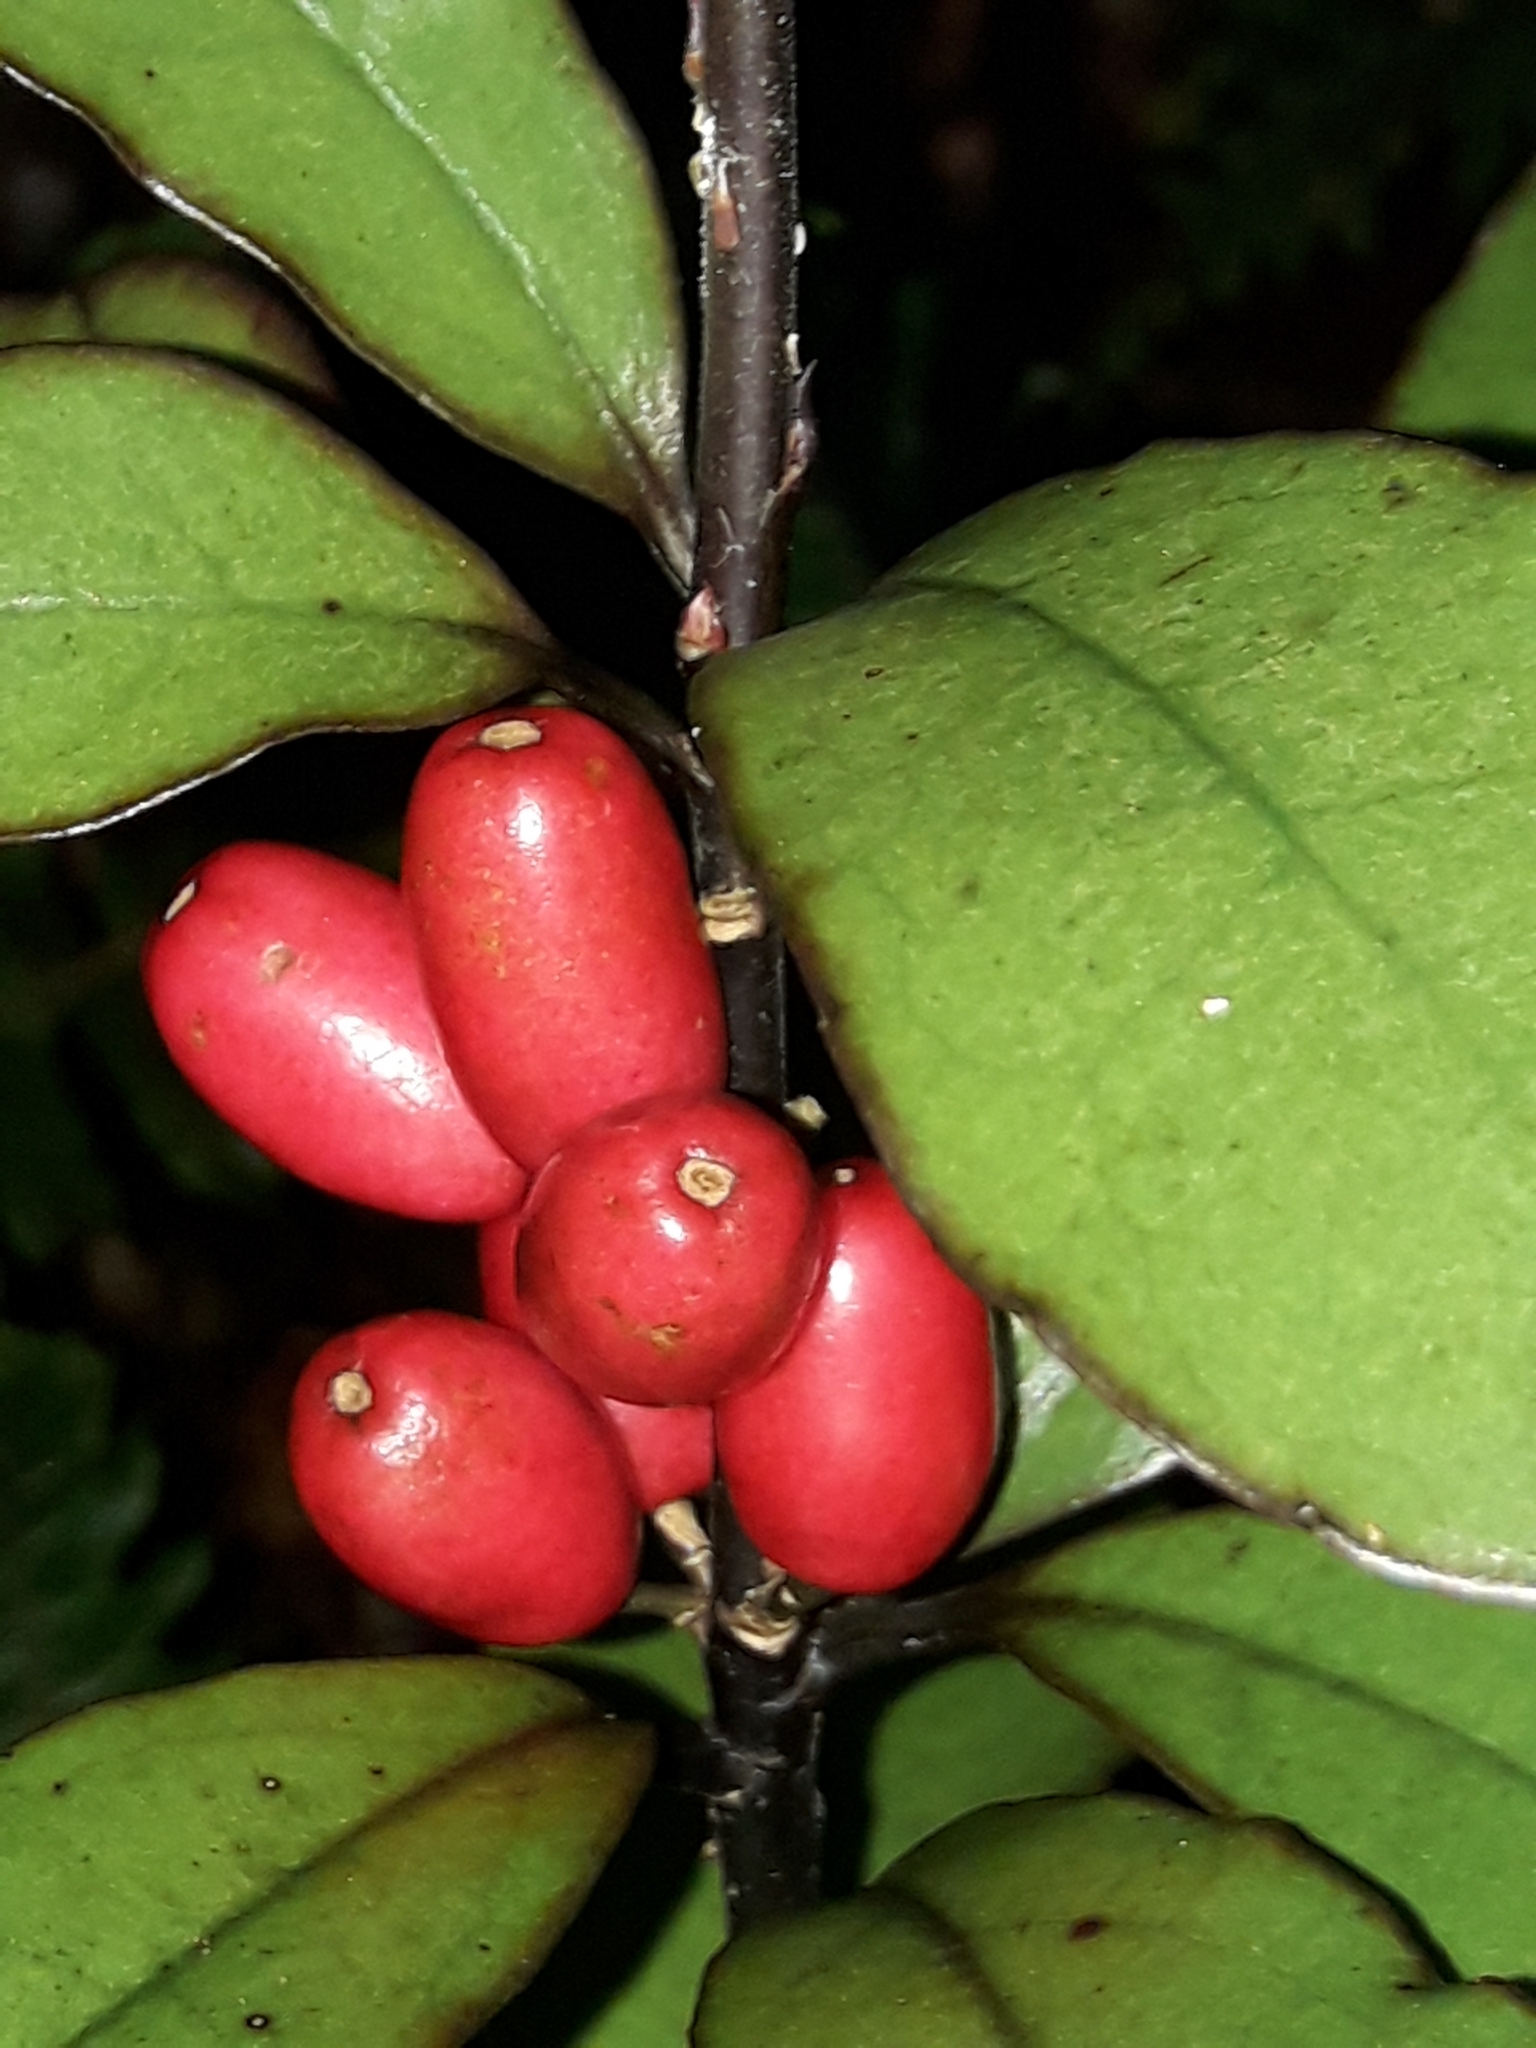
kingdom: Plantae
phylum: Tracheophyta
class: Magnoliopsida
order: Asterales
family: Alseuosmiaceae
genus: Alseuosmia
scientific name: Alseuosmia pusilla
